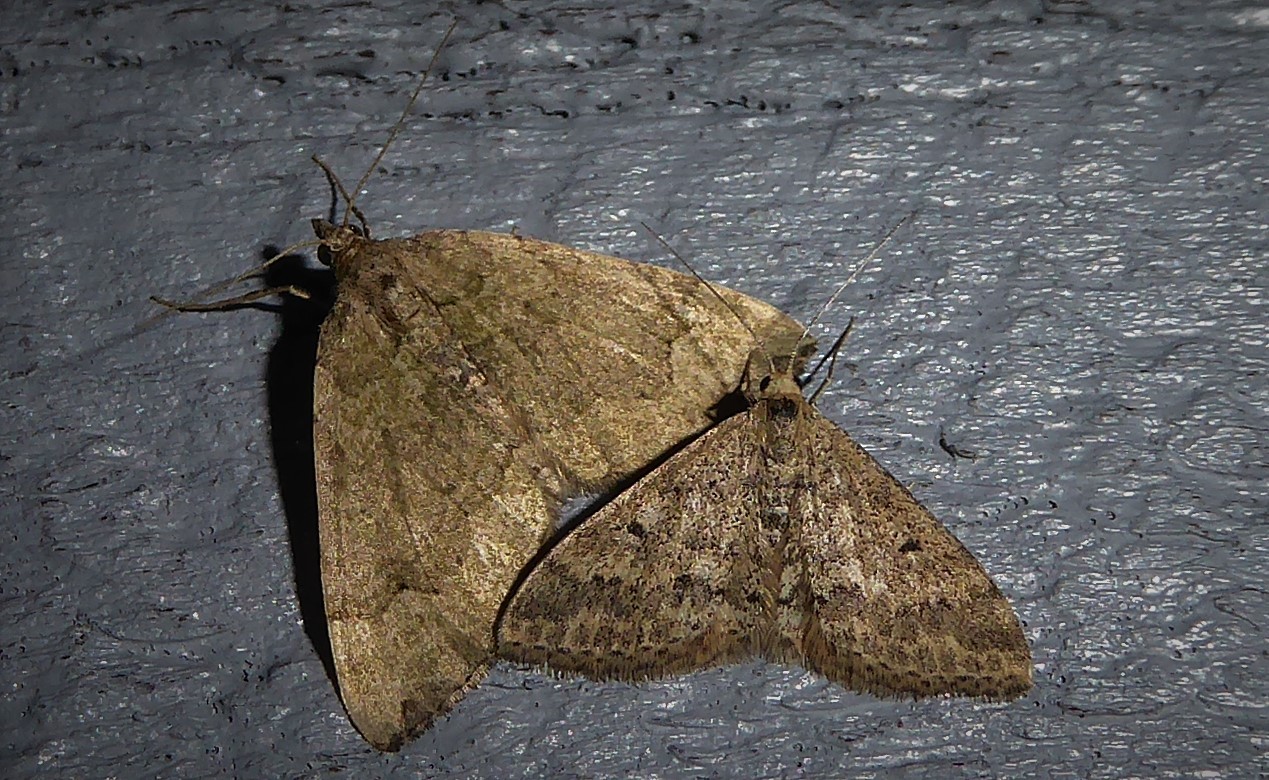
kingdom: Animalia
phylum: Arthropoda
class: Insecta
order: Lepidoptera
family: Geometridae
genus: Scopula
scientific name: Scopula rubraria
